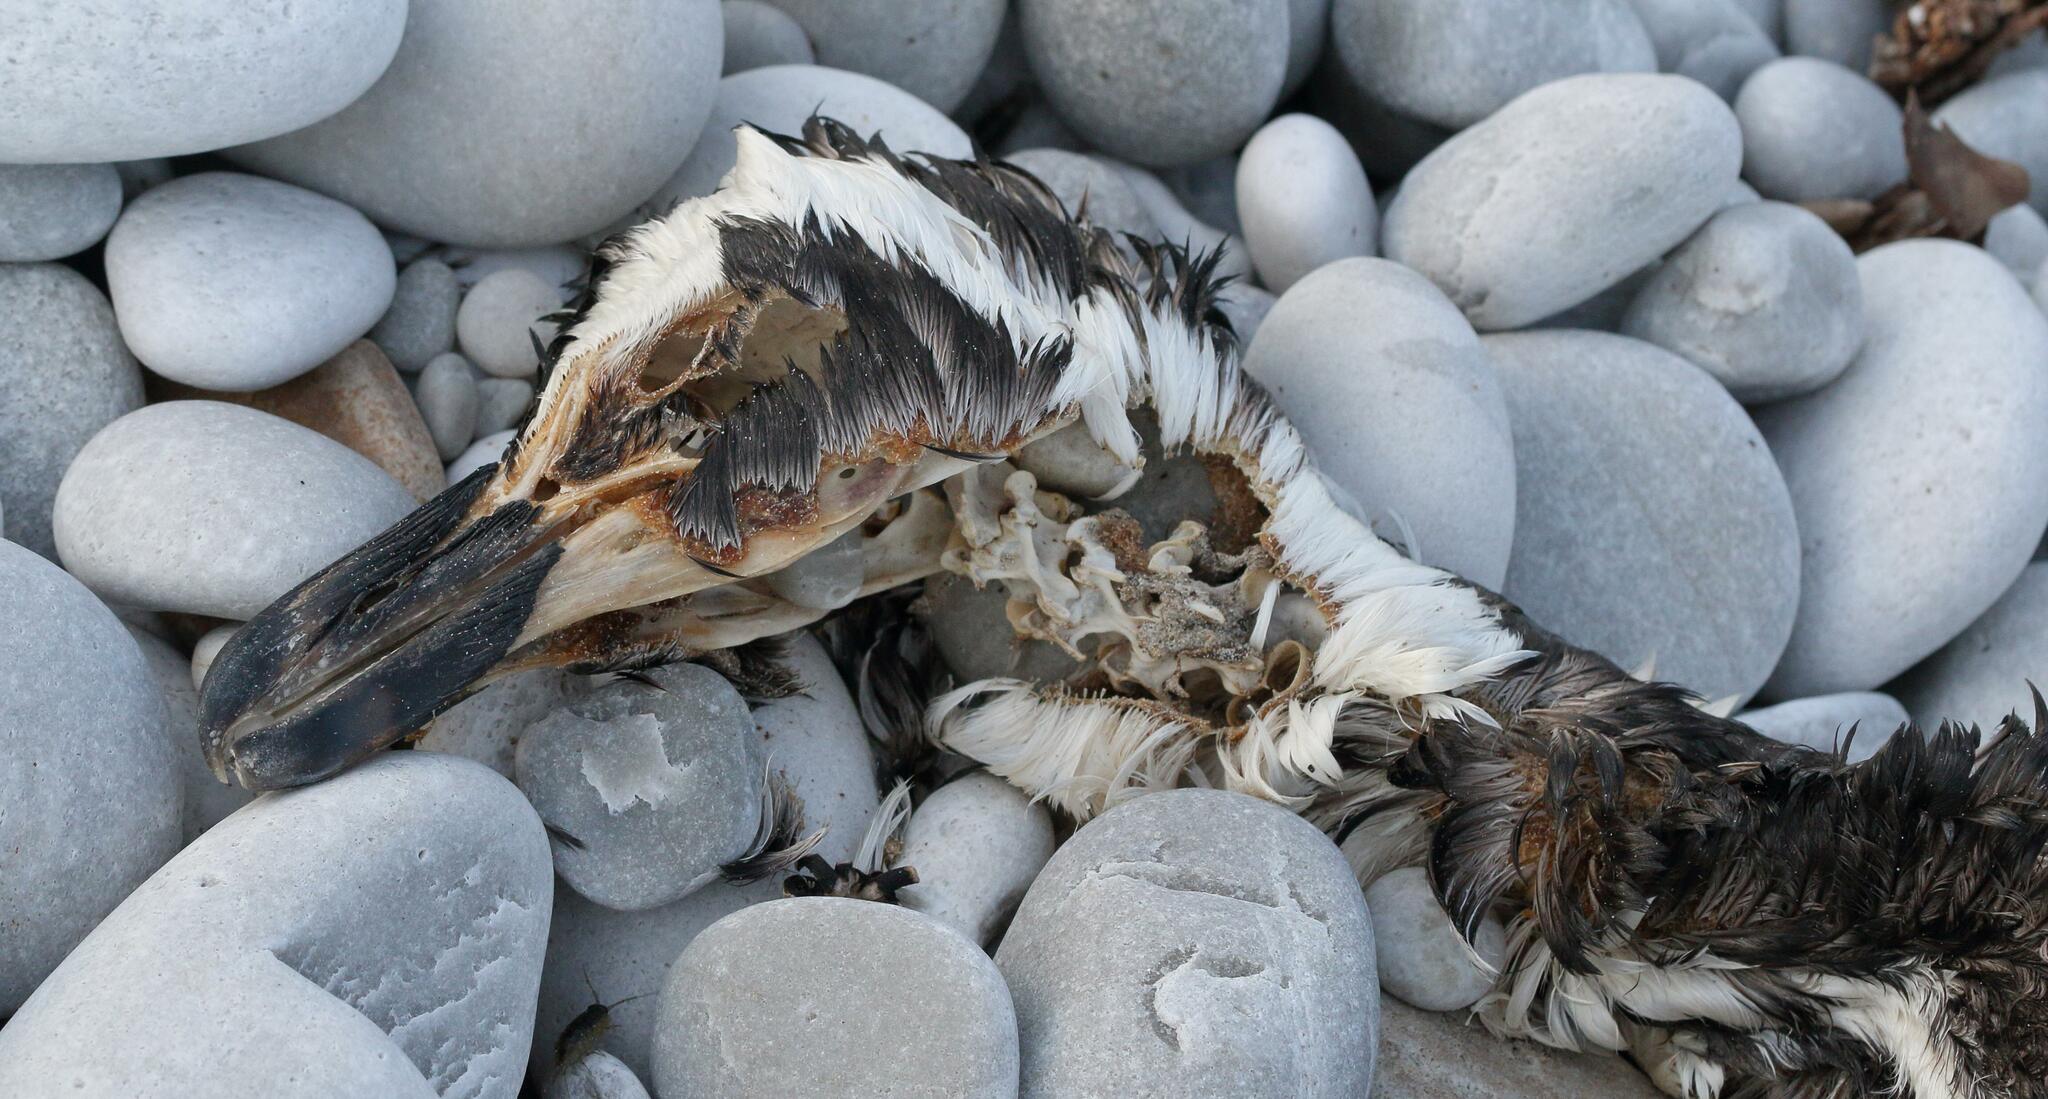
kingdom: Animalia
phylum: Chordata
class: Aves
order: Sphenisciformes
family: Spheniscidae
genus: Spheniscus
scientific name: Spheniscus demersus
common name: African penguin
